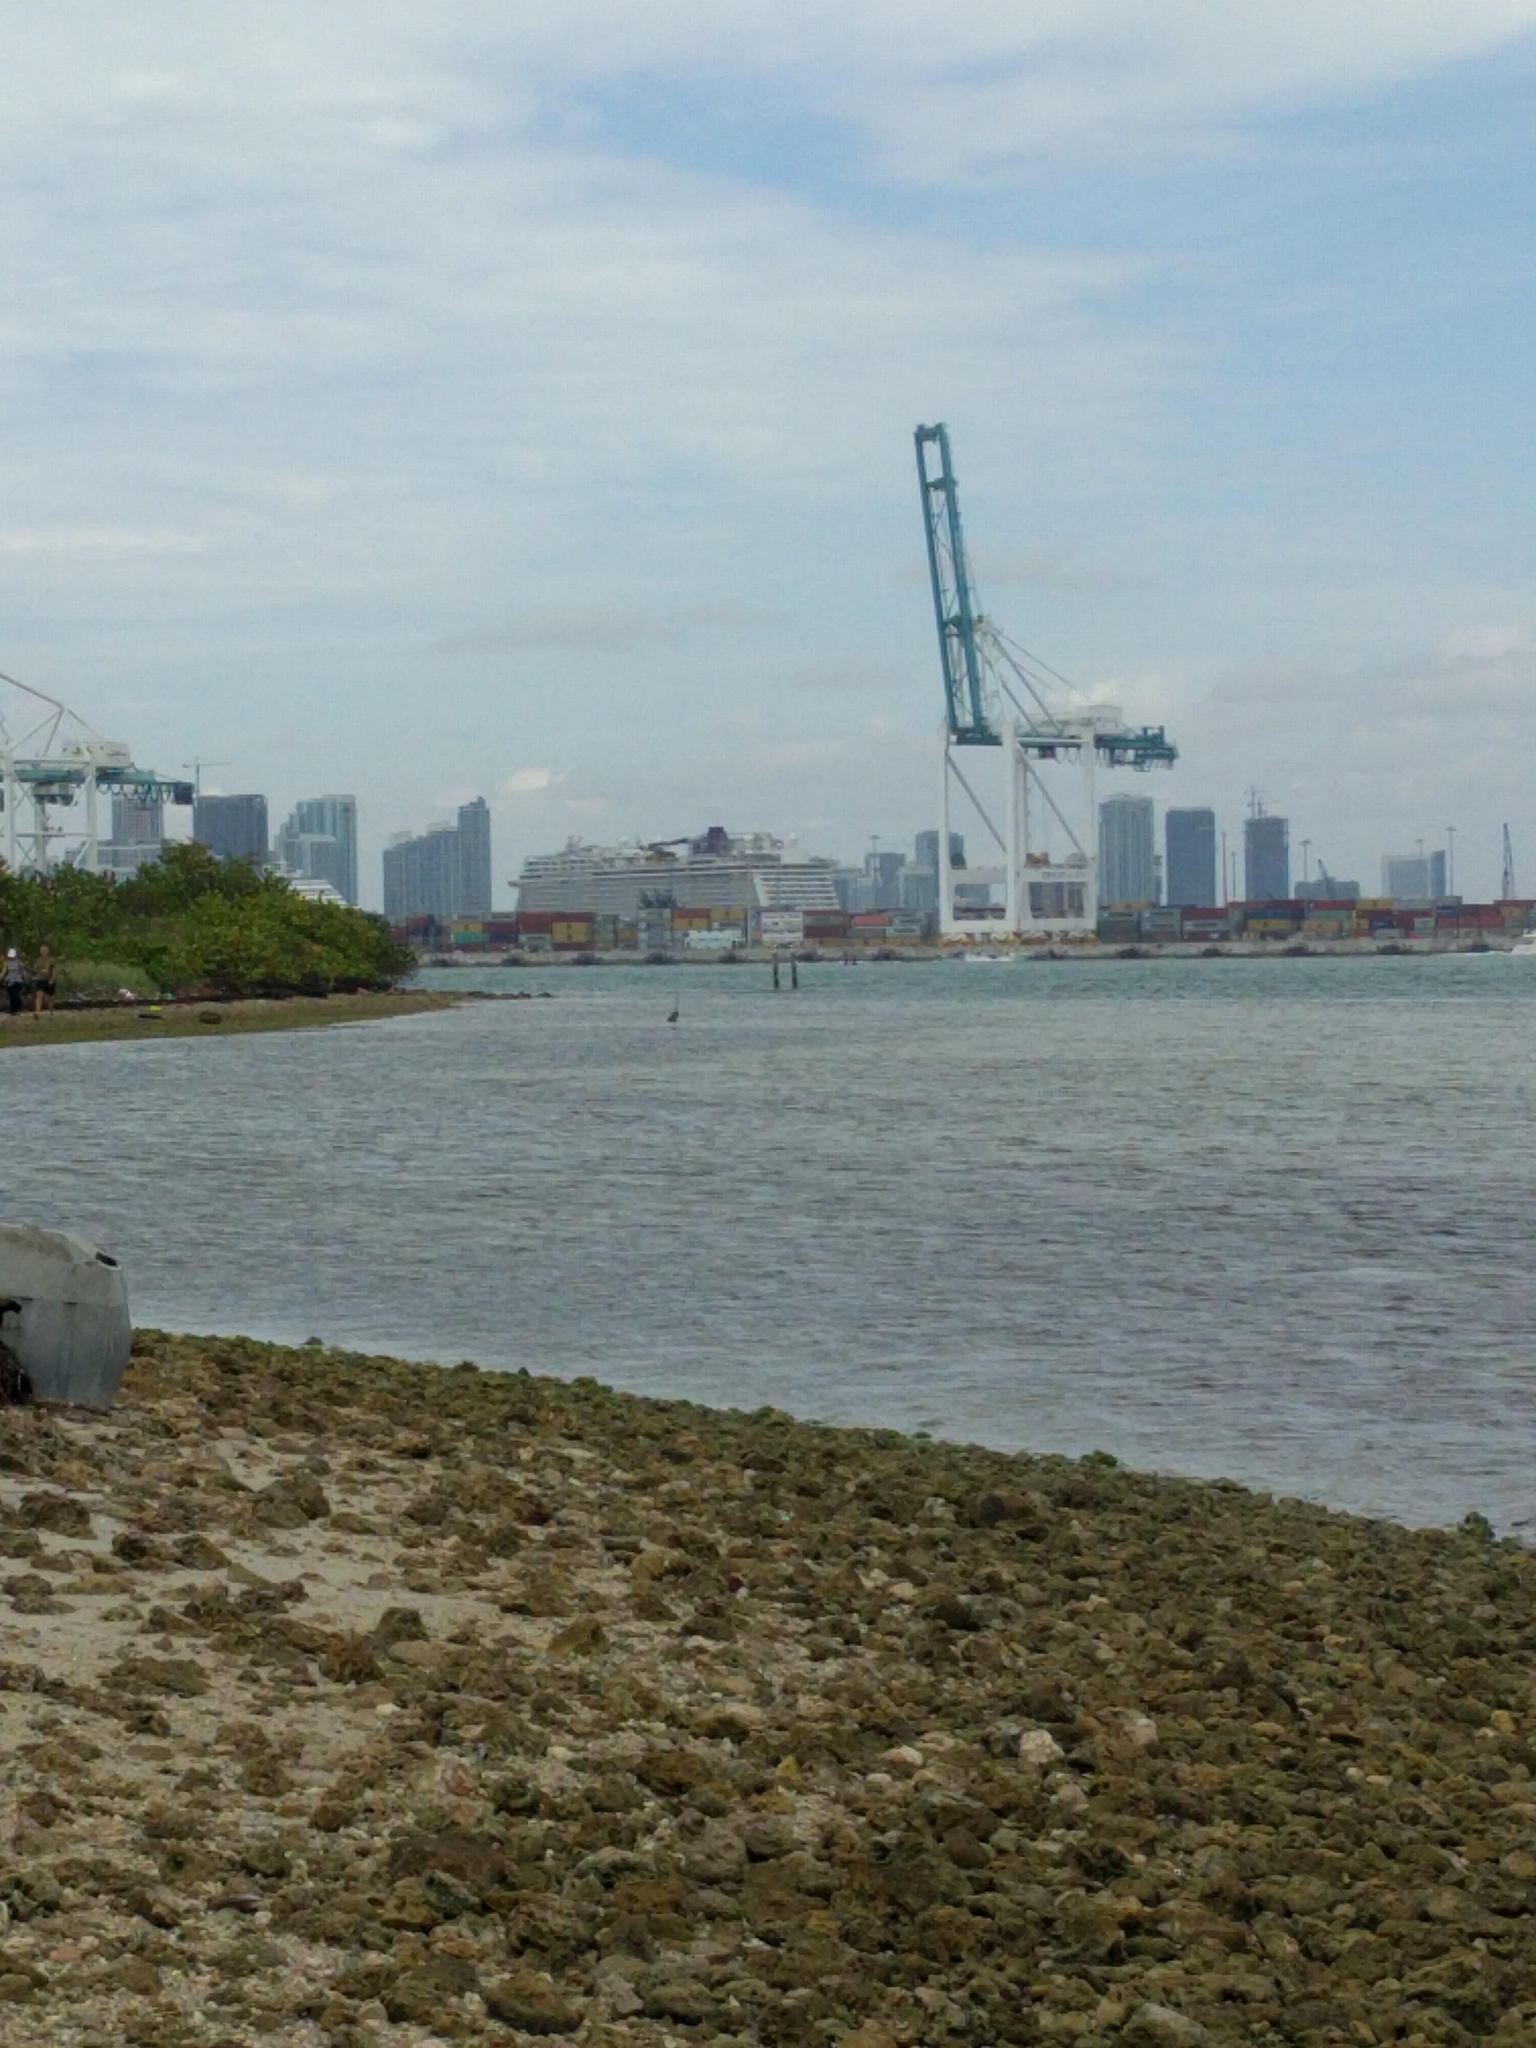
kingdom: Animalia
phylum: Chordata
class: Aves
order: Pelecaniformes
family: Ardeidae
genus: Ardea
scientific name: Ardea herodias
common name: Great blue heron
